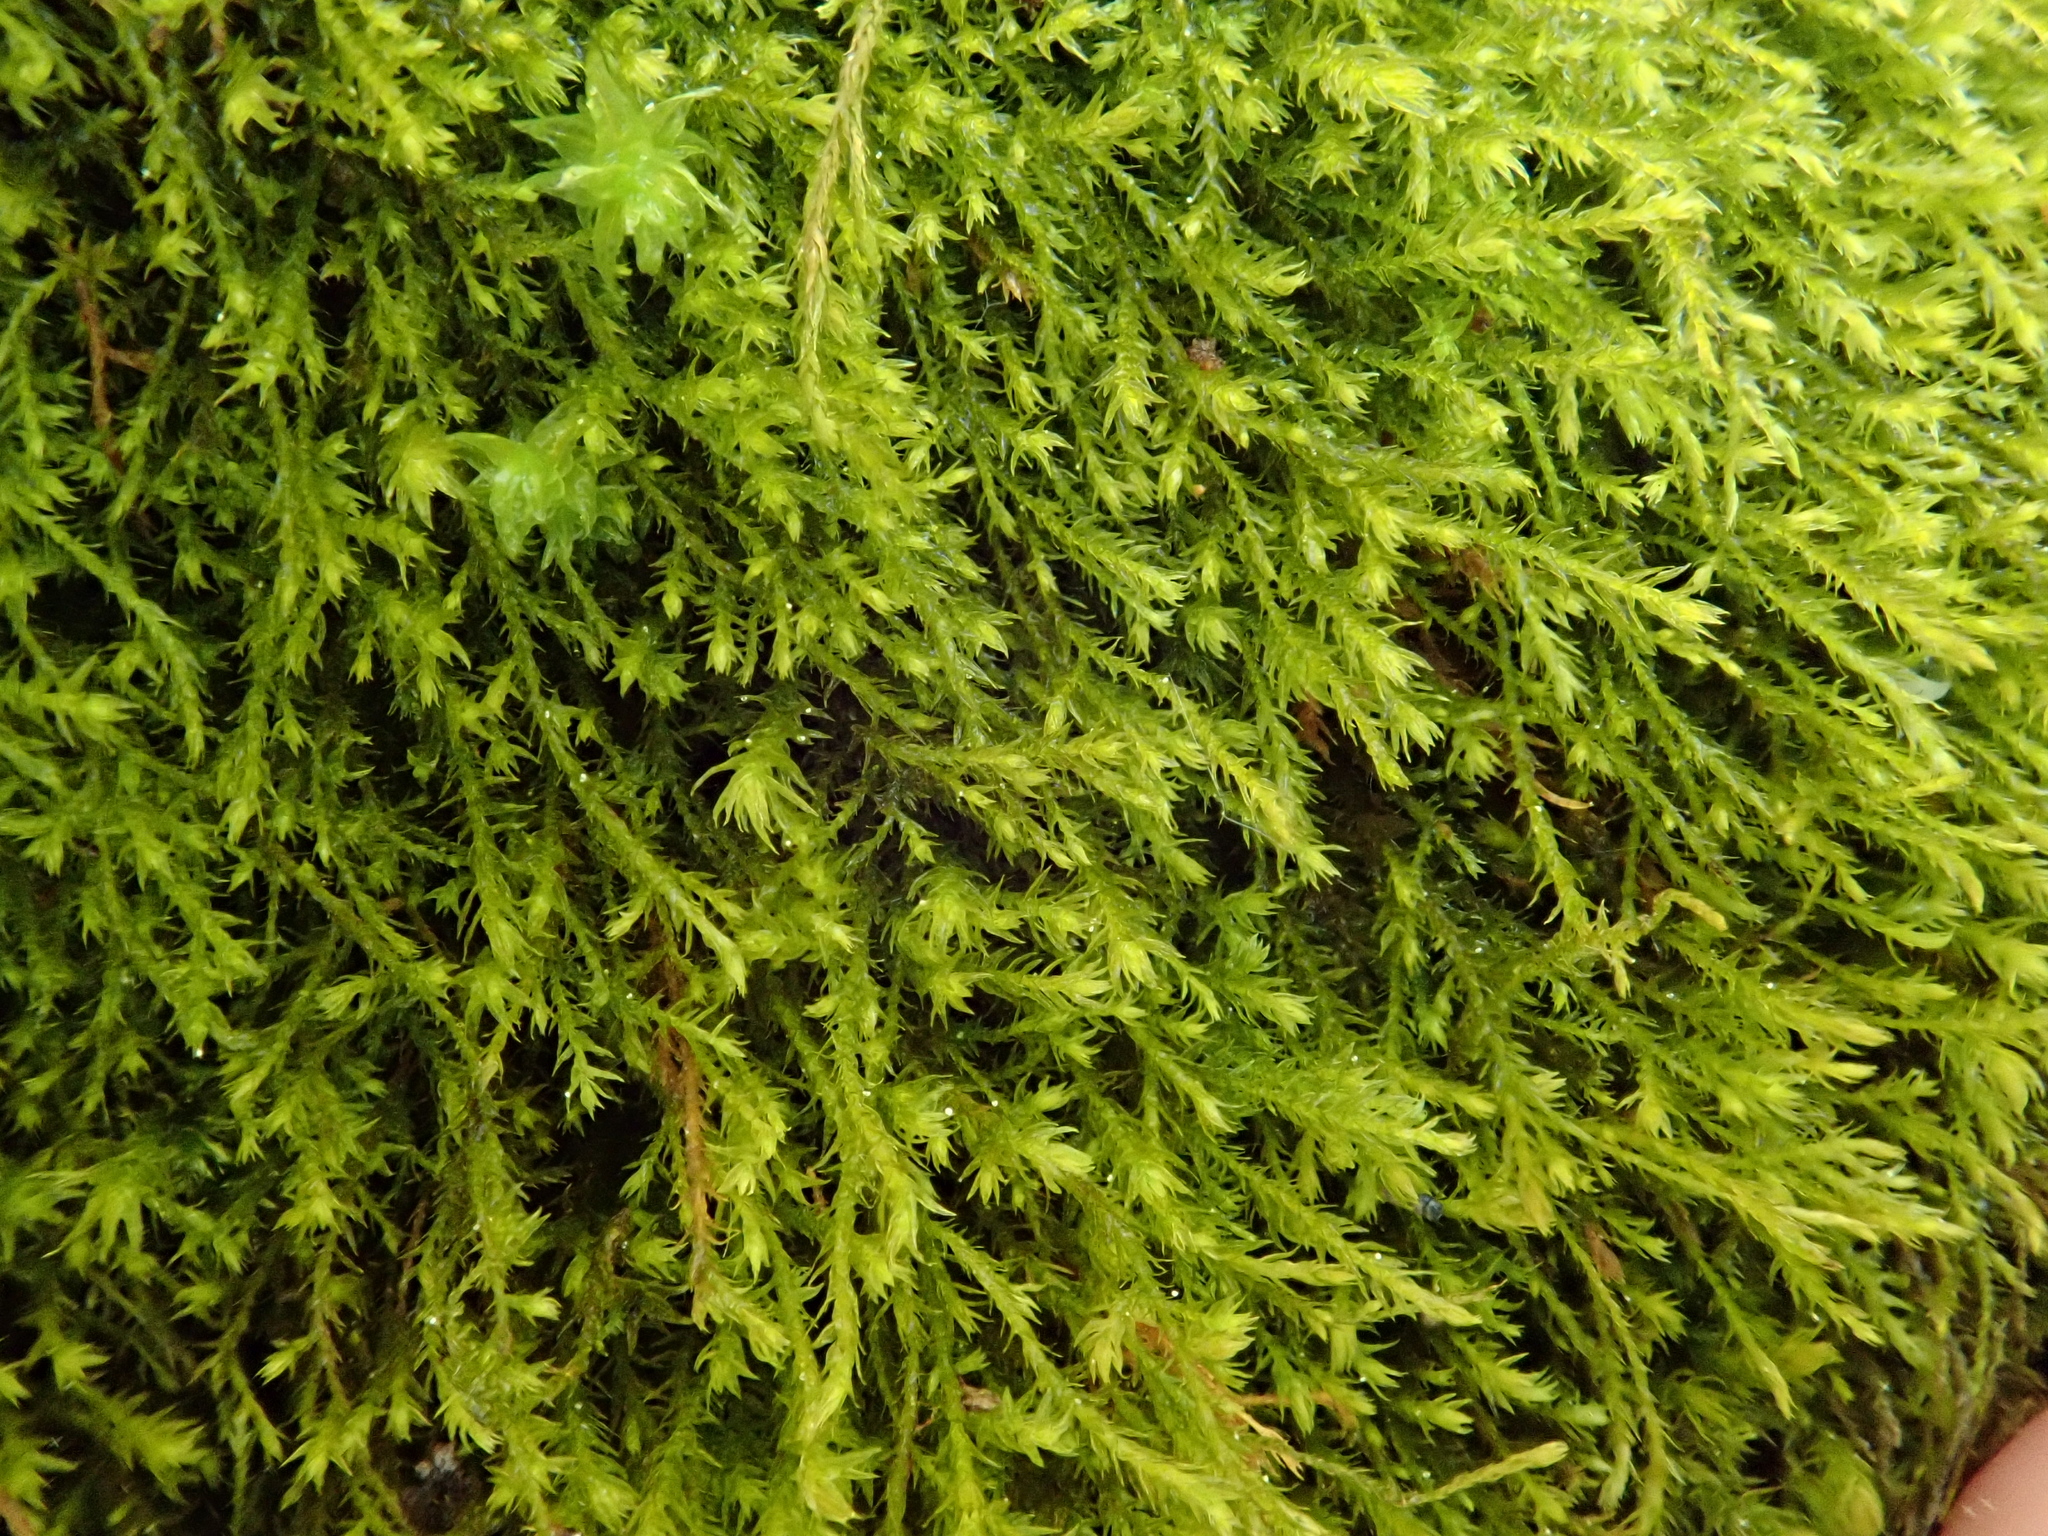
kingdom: Plantae
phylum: Bryophyta
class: Bryopsida
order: Hypnales
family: Anomodontaceae
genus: Anomodontella
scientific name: Anomodontella longifolia
